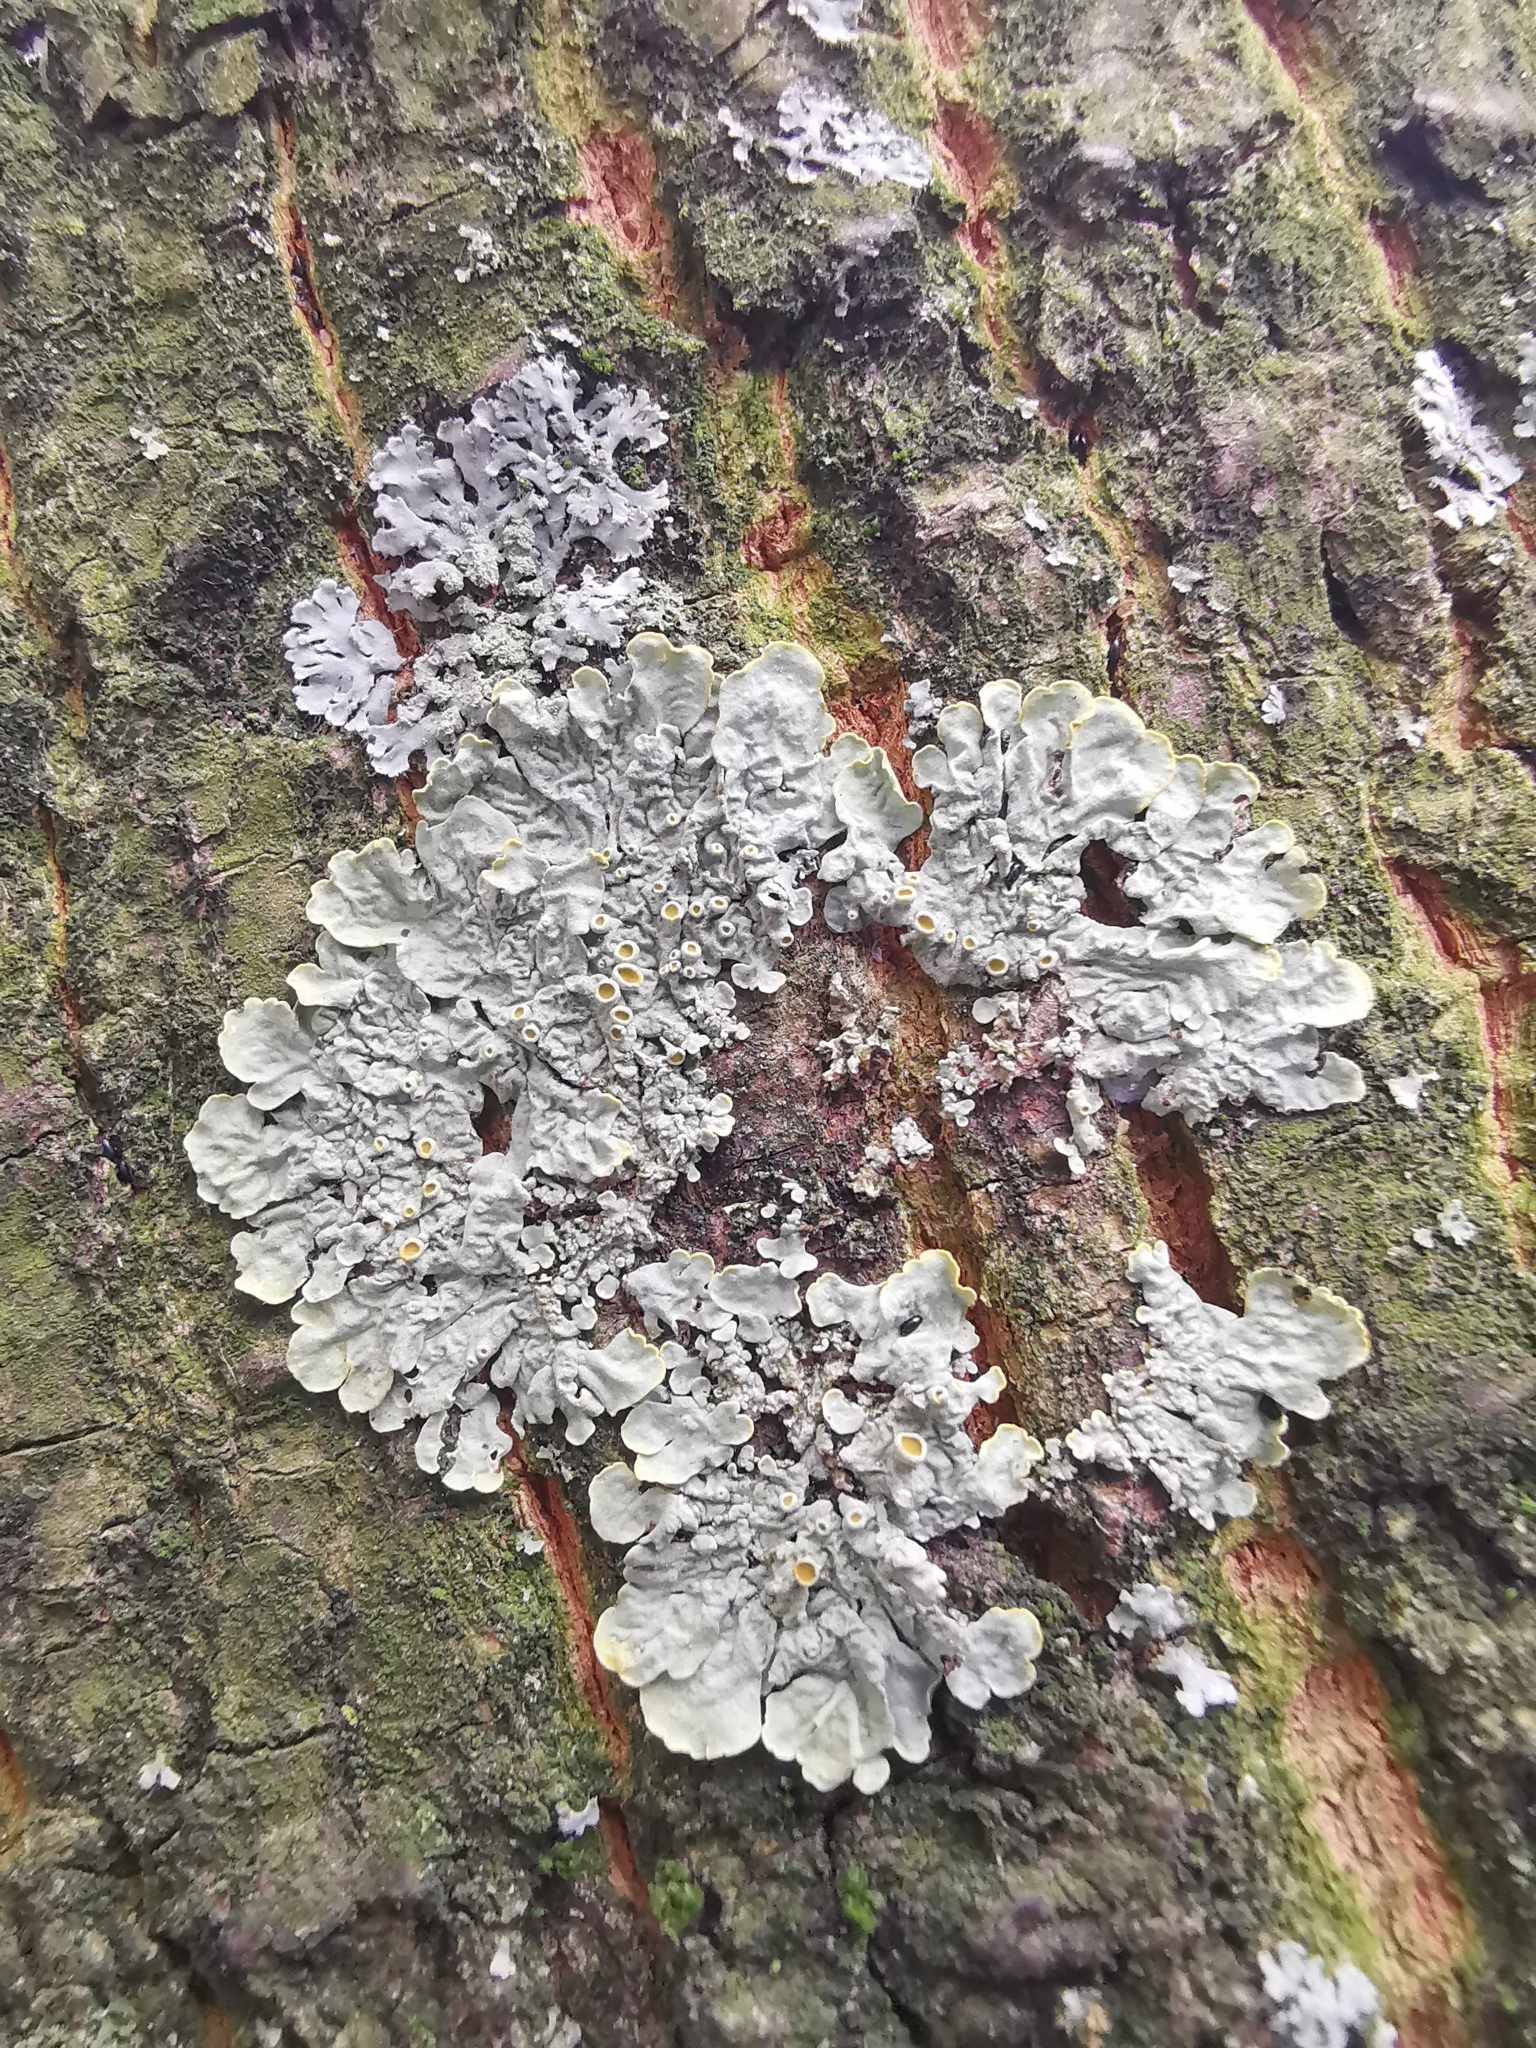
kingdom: Fungi
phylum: Ascomycota
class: Lecanoromycetes
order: Teloschistales
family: Teloschistaceae
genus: Xanthoria
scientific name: Xanthoria parietina
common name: Common orange lichen
